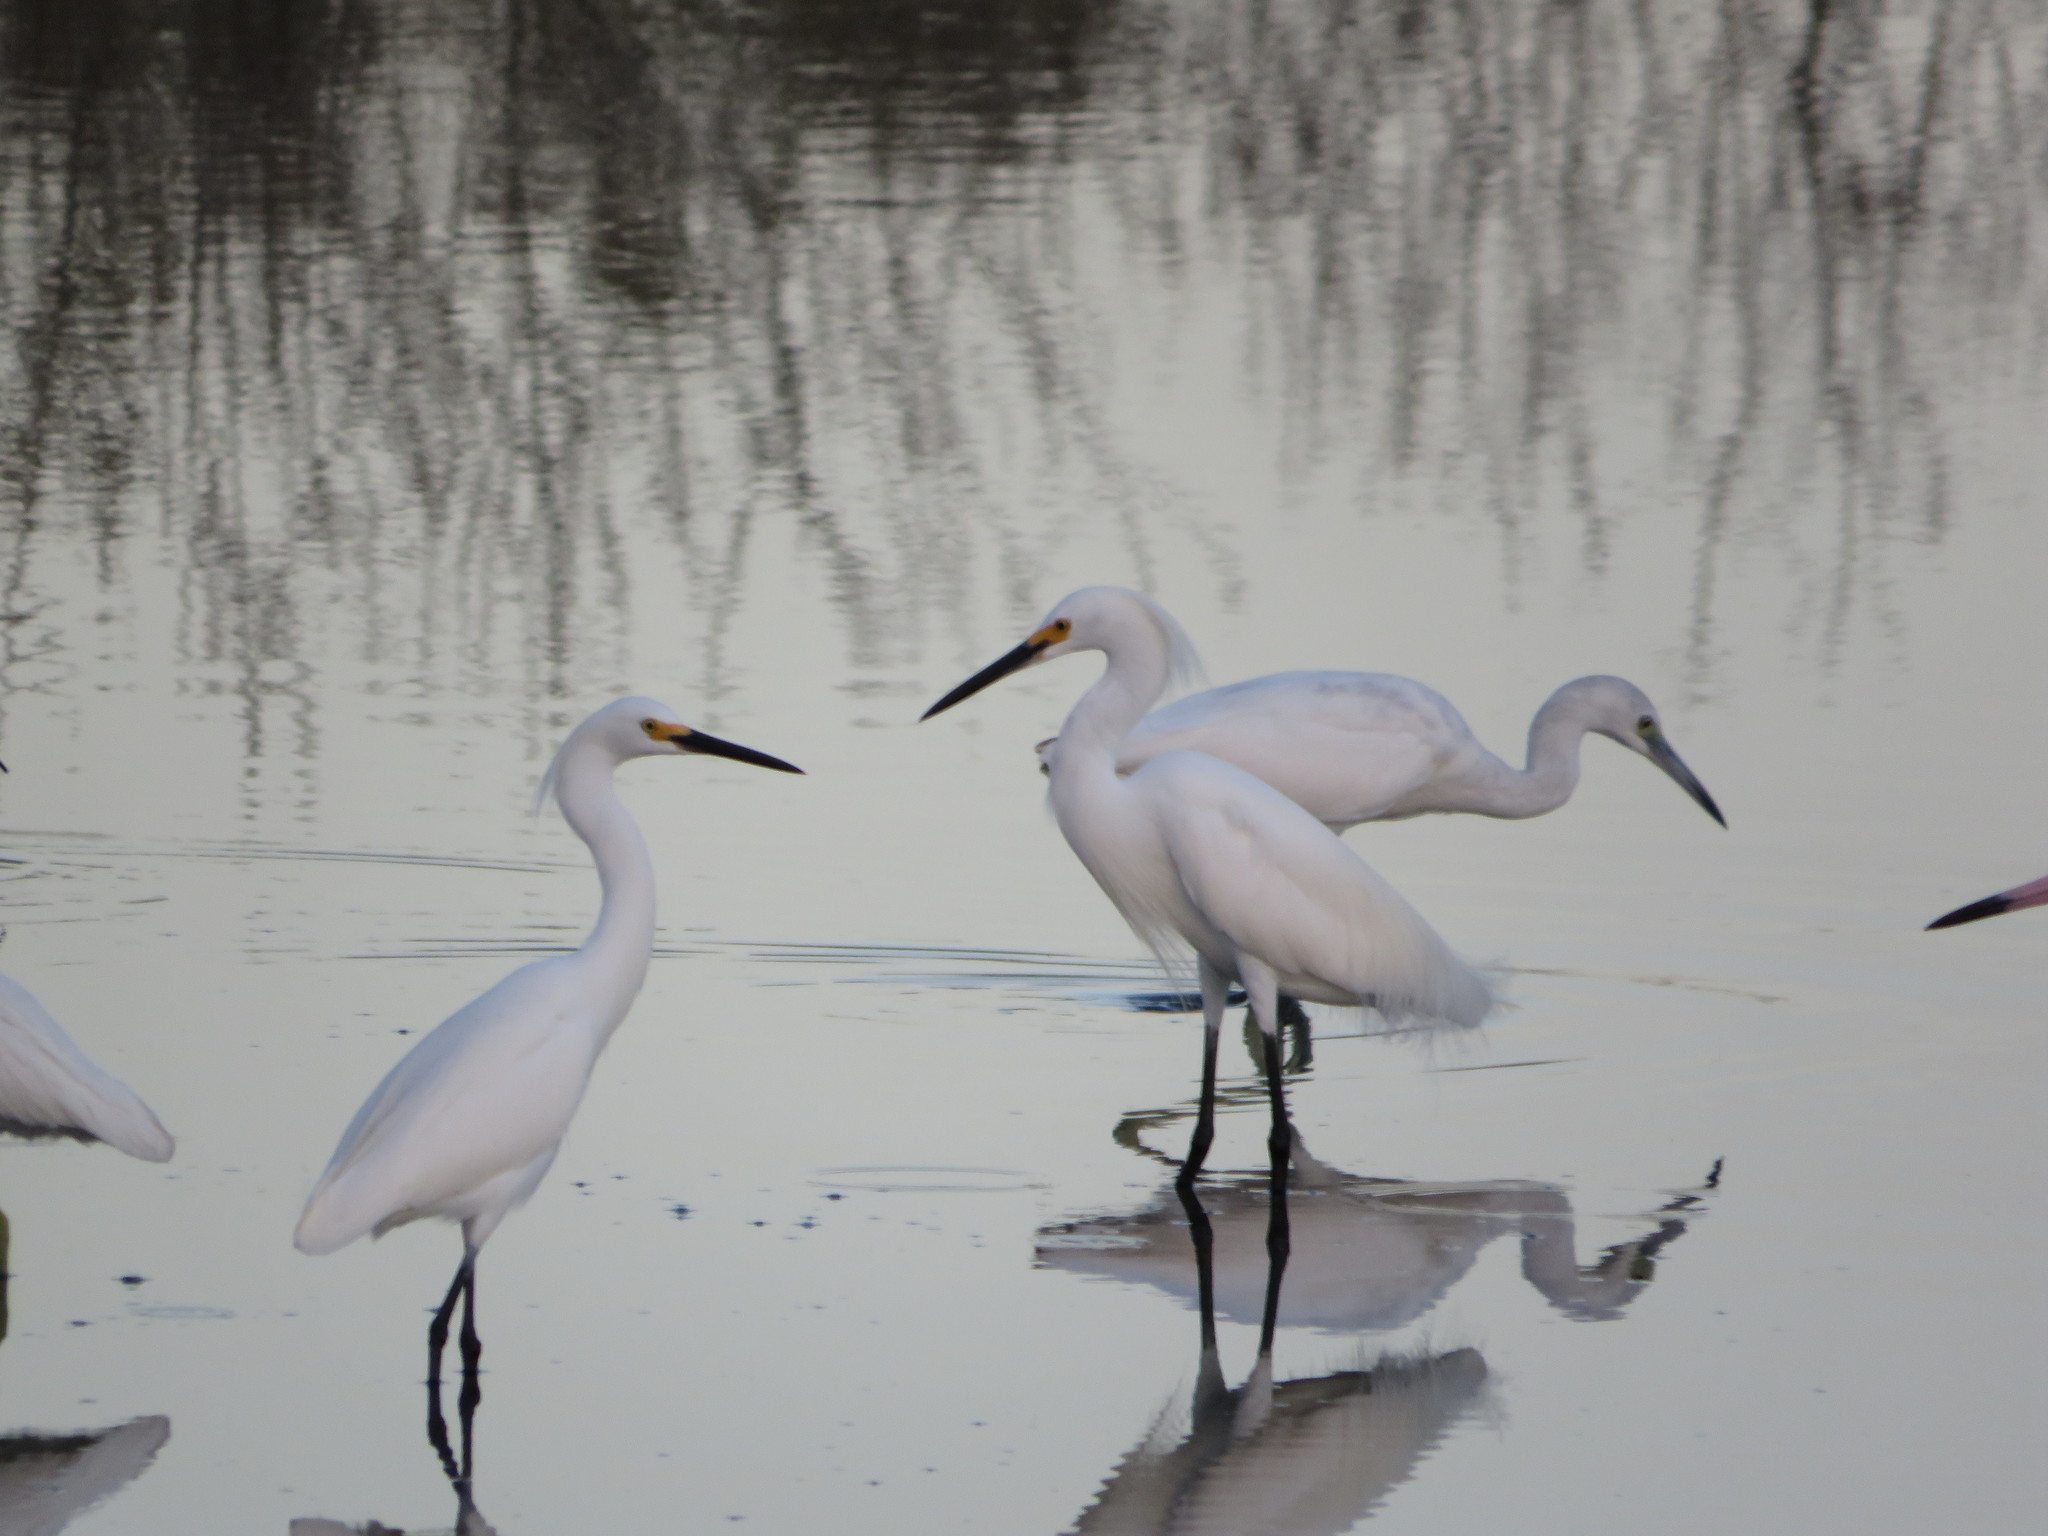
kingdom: Animalia
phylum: Chordata
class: Aves
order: Pelecaniformes
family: Ardeidae
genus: Egretta
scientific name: Egretta thula
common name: Snowy egret
